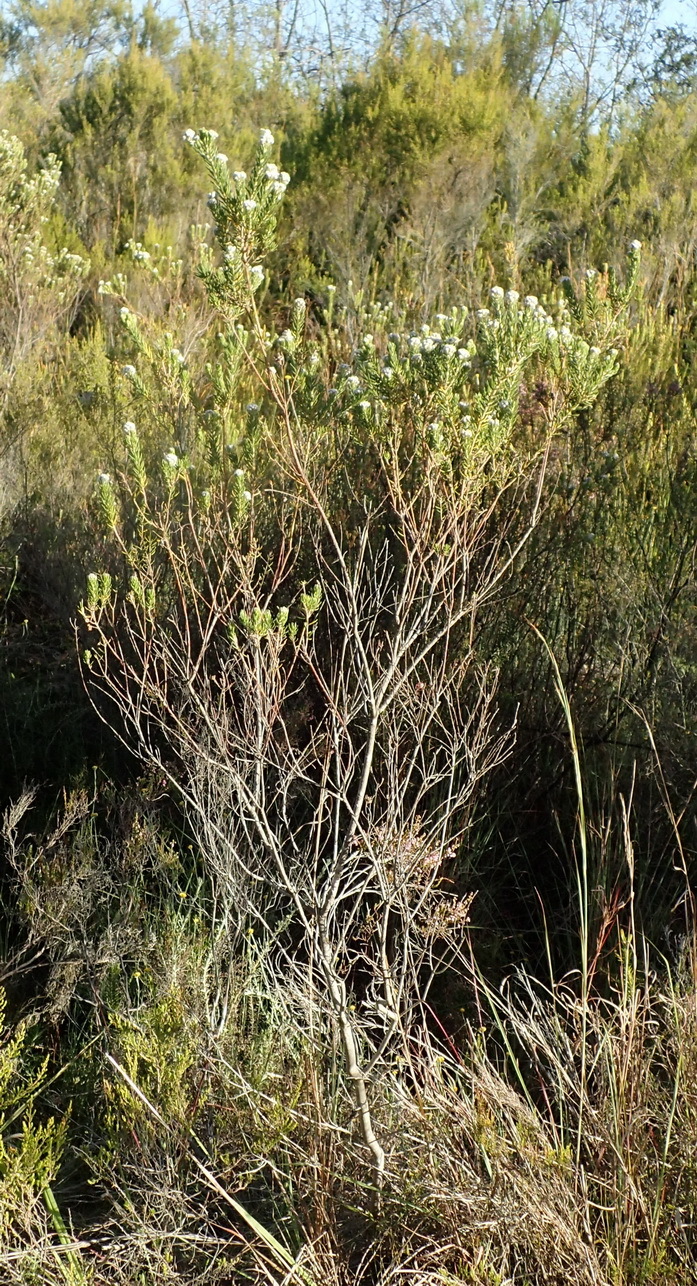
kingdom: Plantae
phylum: Tracheophyta
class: Magnoliopsida
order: Rosales
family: Rhamnaceae
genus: Phylica
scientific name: Phylica pinea
